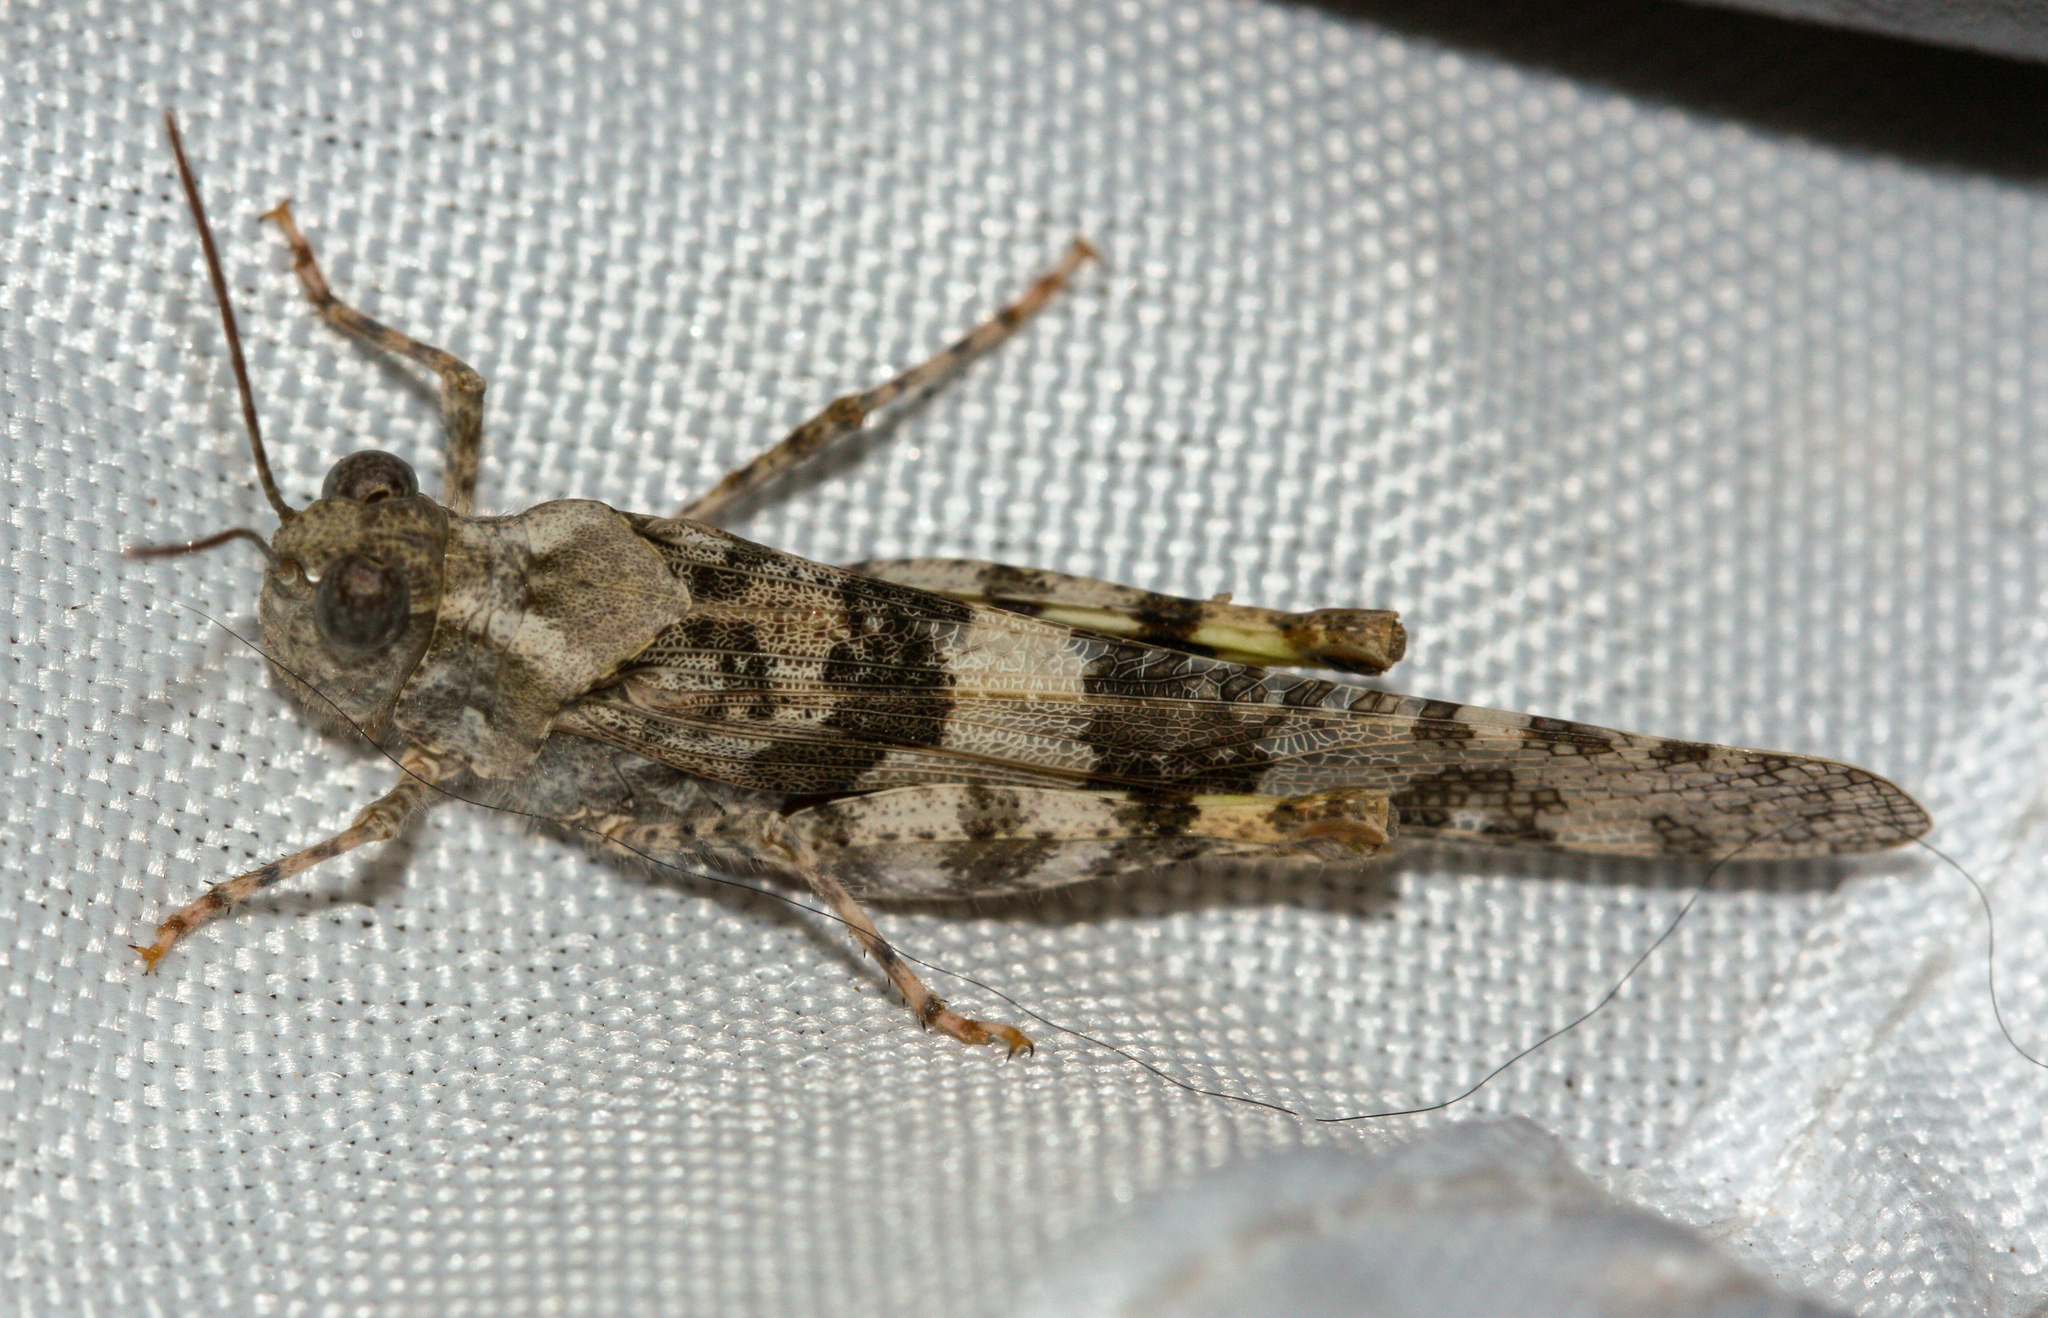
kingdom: Animalia
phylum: Arthropoda
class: Insecta
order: Orthoptera
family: Acrididae
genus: Trimerotropis
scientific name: Trimerotropis pallidipennis
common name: Pallid-winged grasshopper
